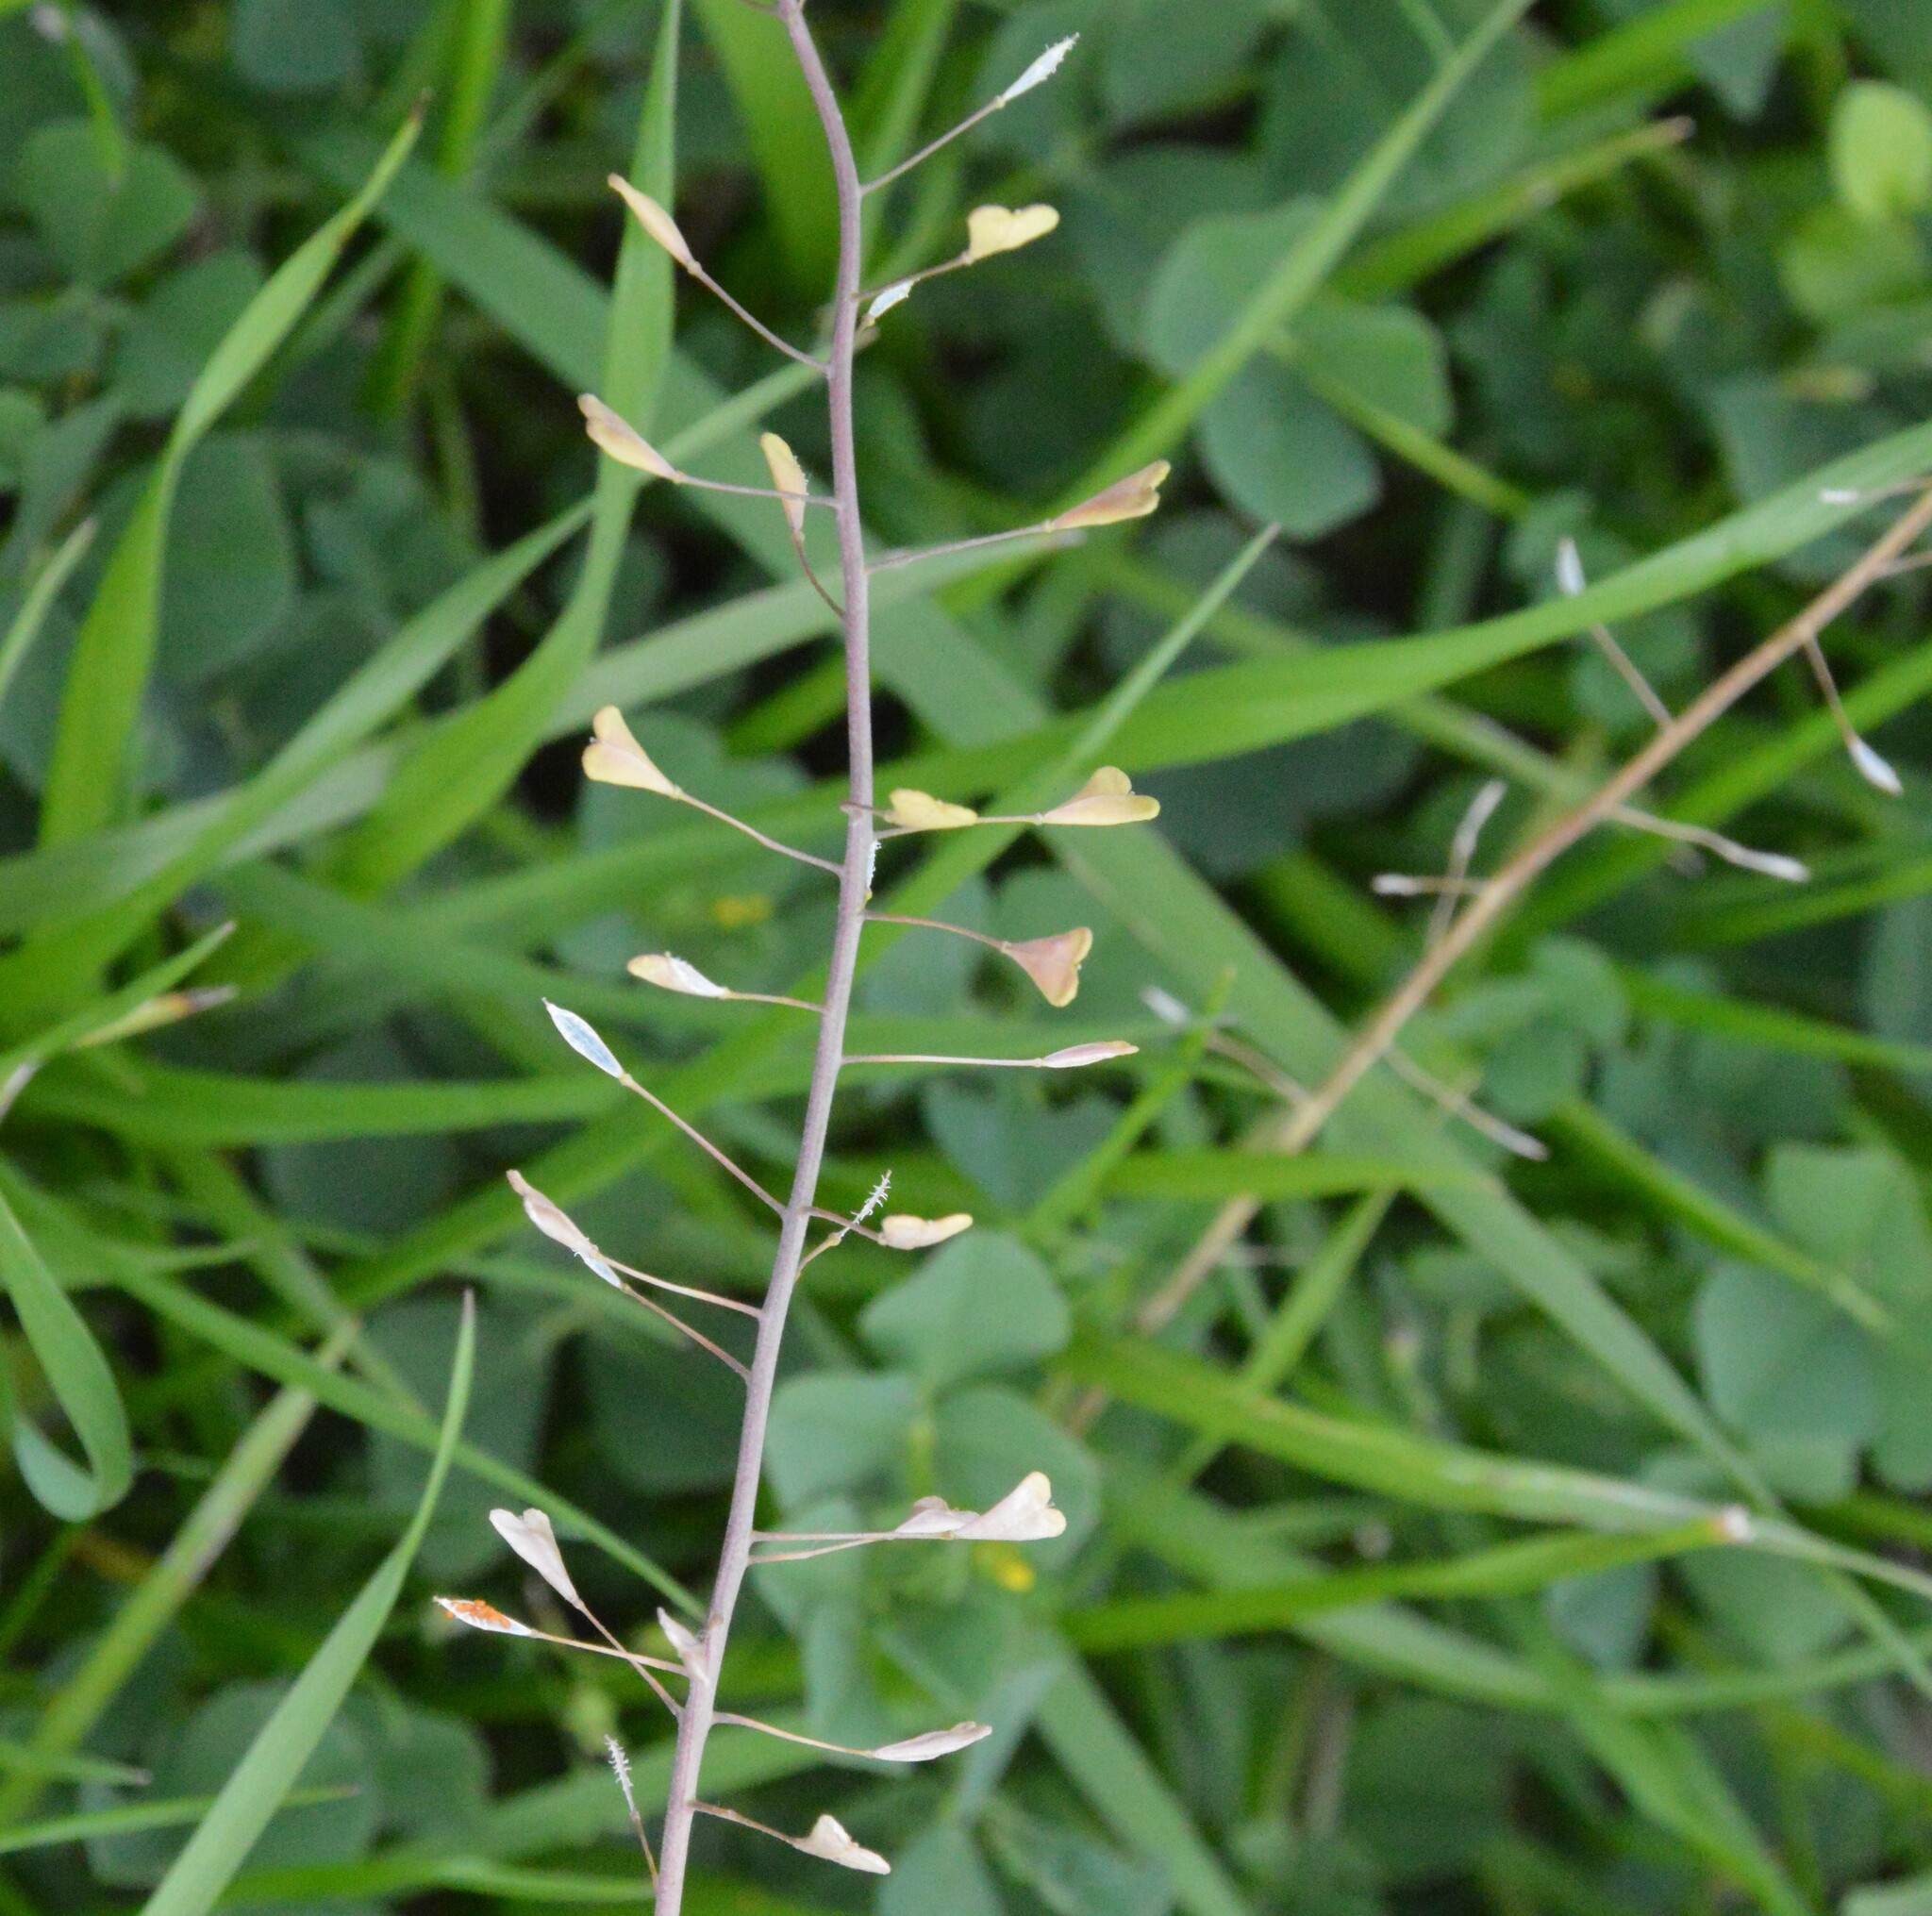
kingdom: Plantae
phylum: Tracheophyta
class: Magnoliopsida
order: Brassicales
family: Brassicaceae
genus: Capsella
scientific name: Capsella bursa-pastoris
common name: Shepherd's purse
